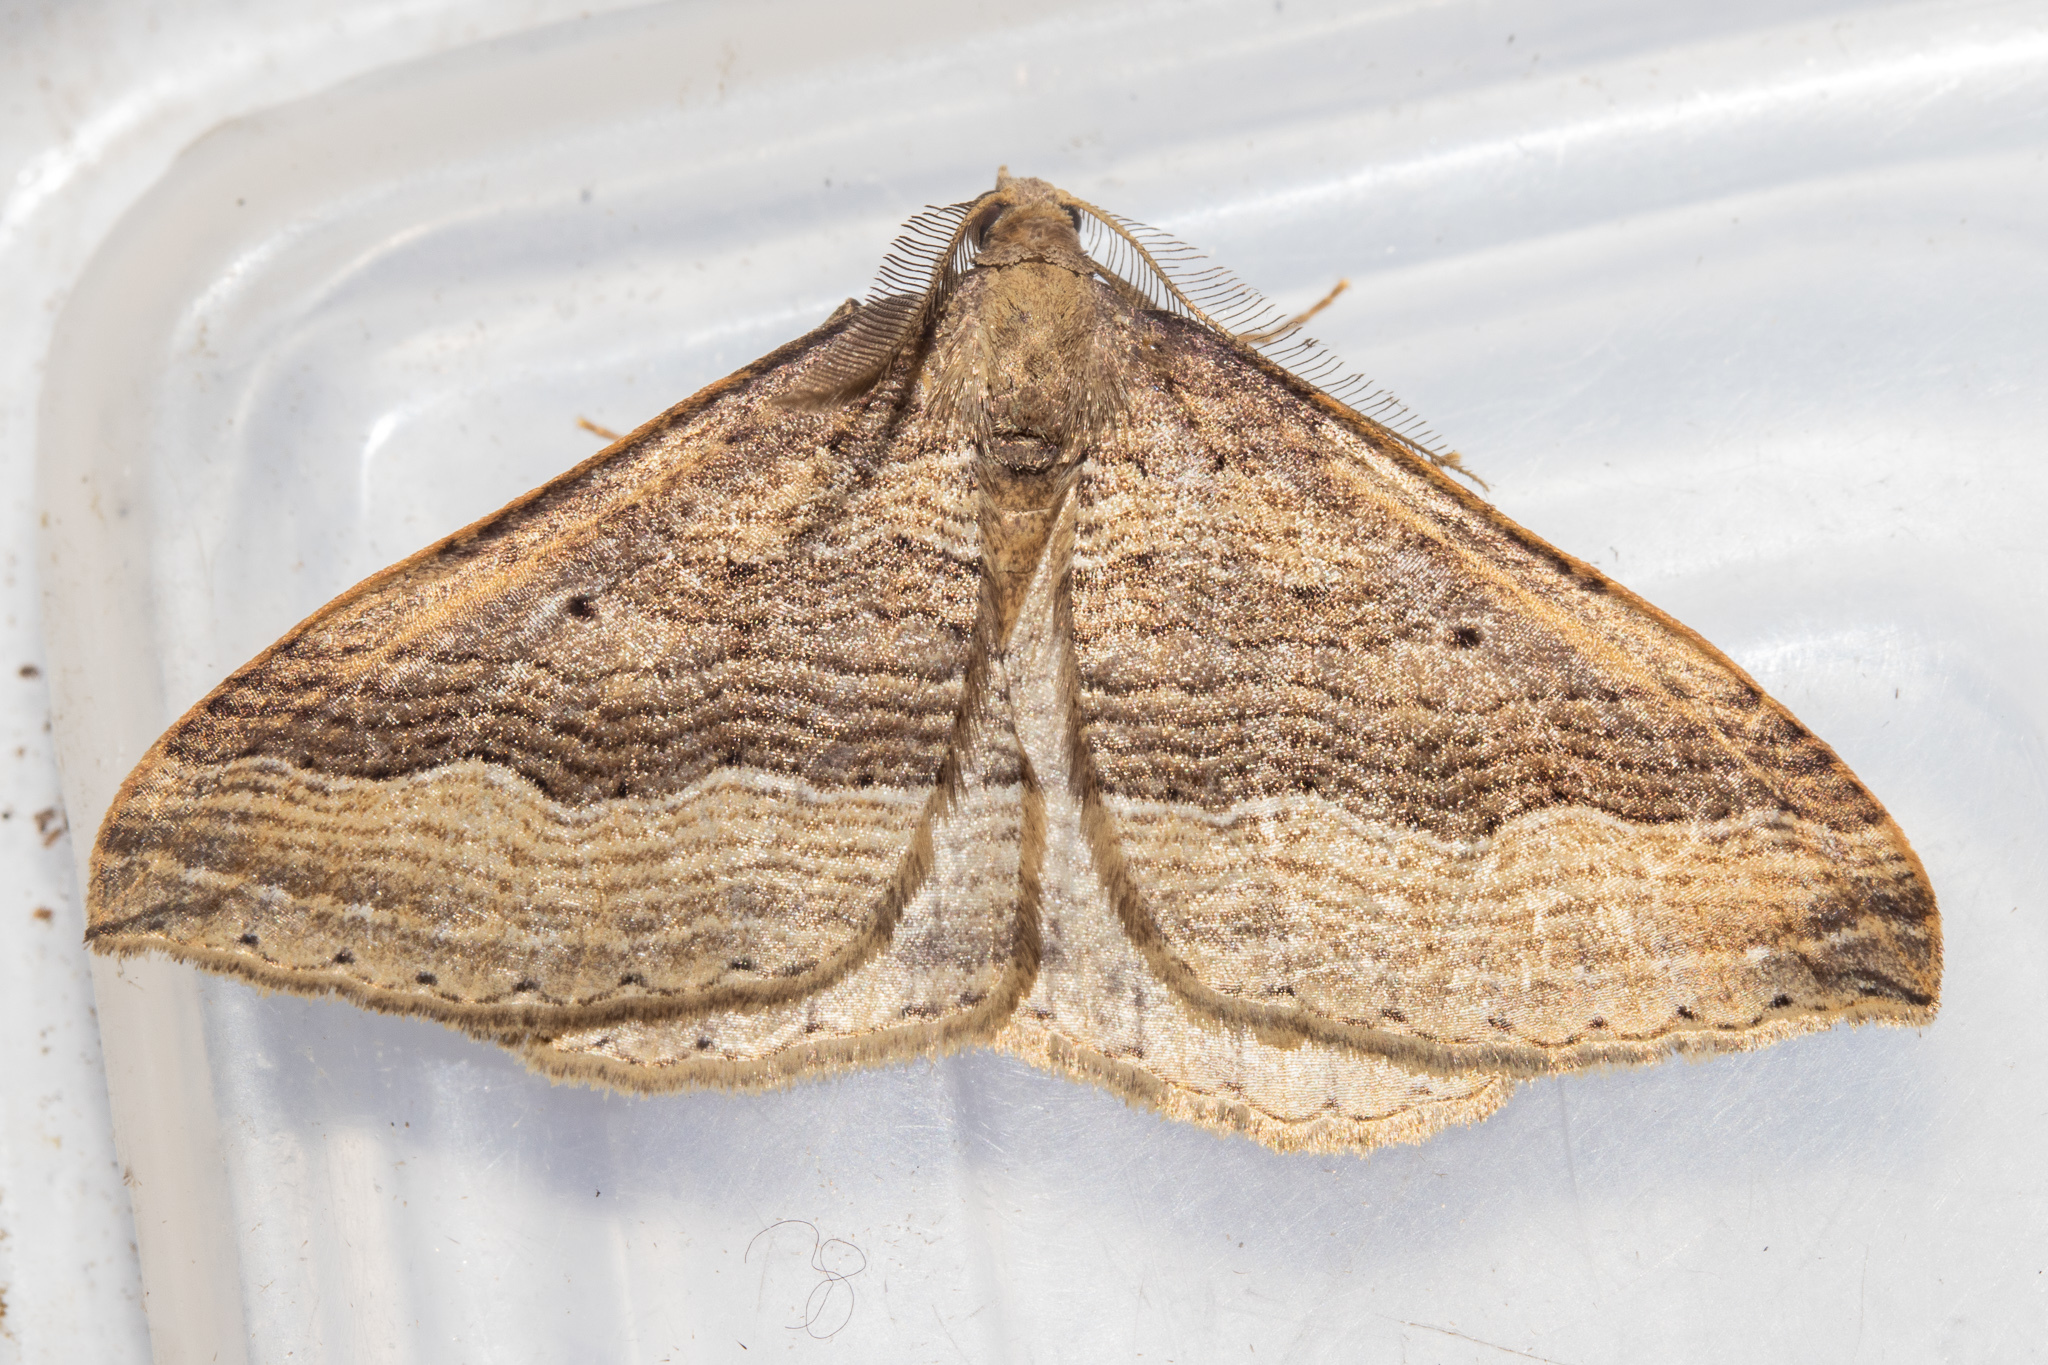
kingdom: Animalia
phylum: Arthropoda
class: Insecta
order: Lepidoptera
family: Geometridae
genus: Austrocidaria
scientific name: Austrocidaria stricta
